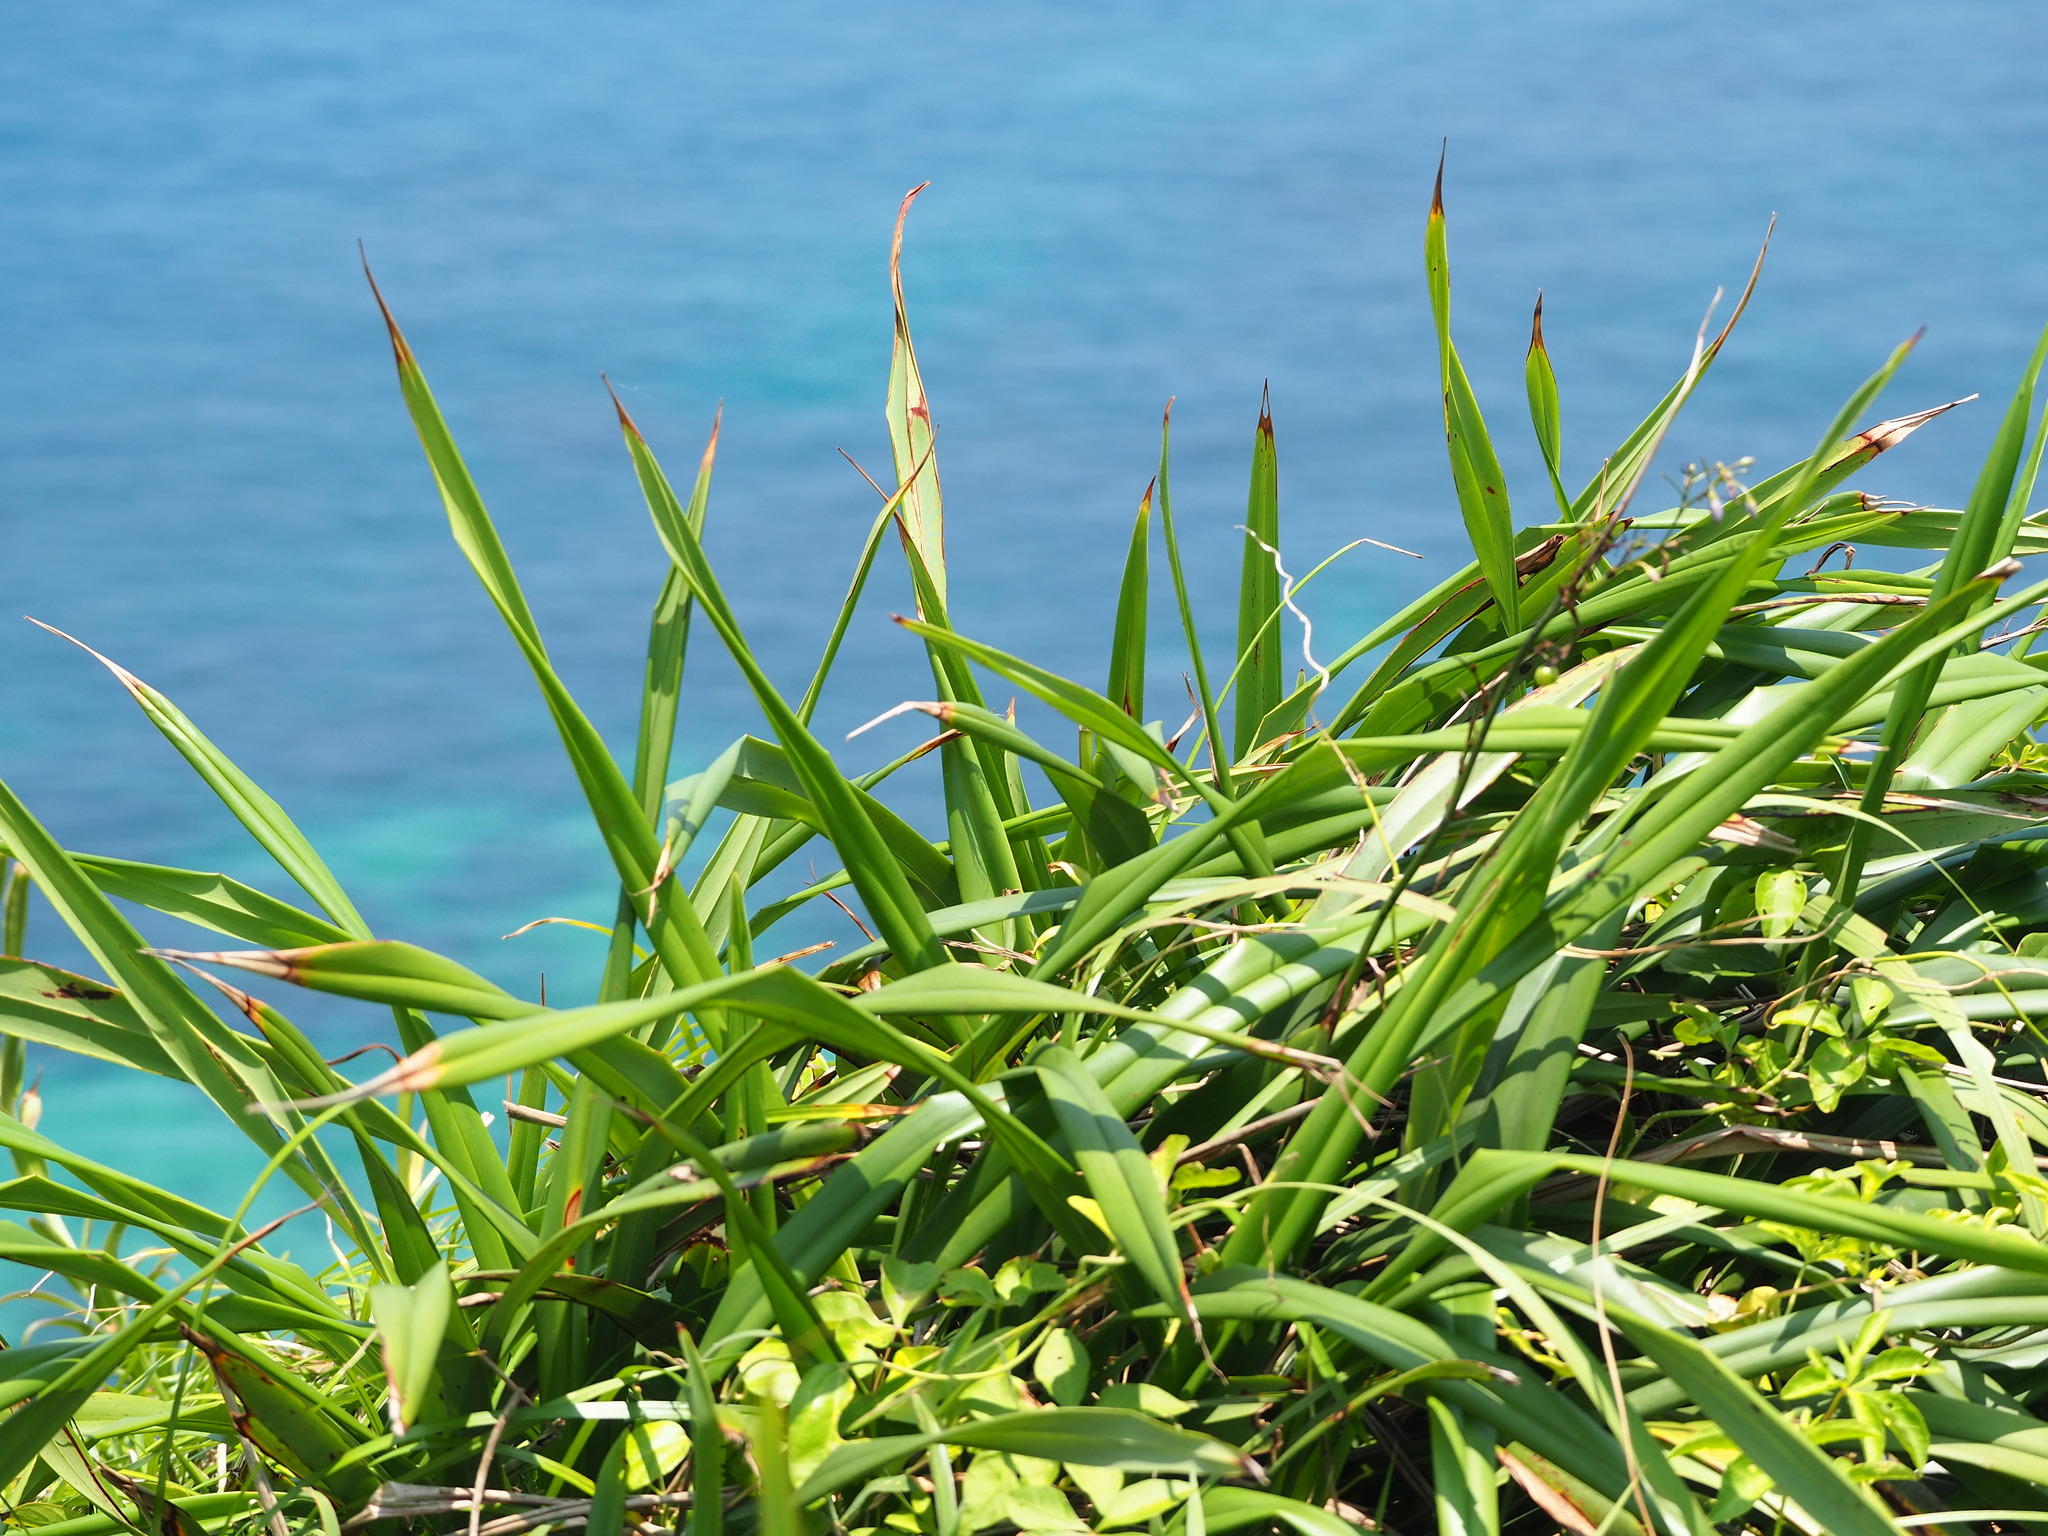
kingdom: Plantae
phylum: Tracheophyta
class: Liliopsida
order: Asparagales
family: Asphodelaceae
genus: Dianella
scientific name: Dianella ensifolia
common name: New zealand lilyplant
